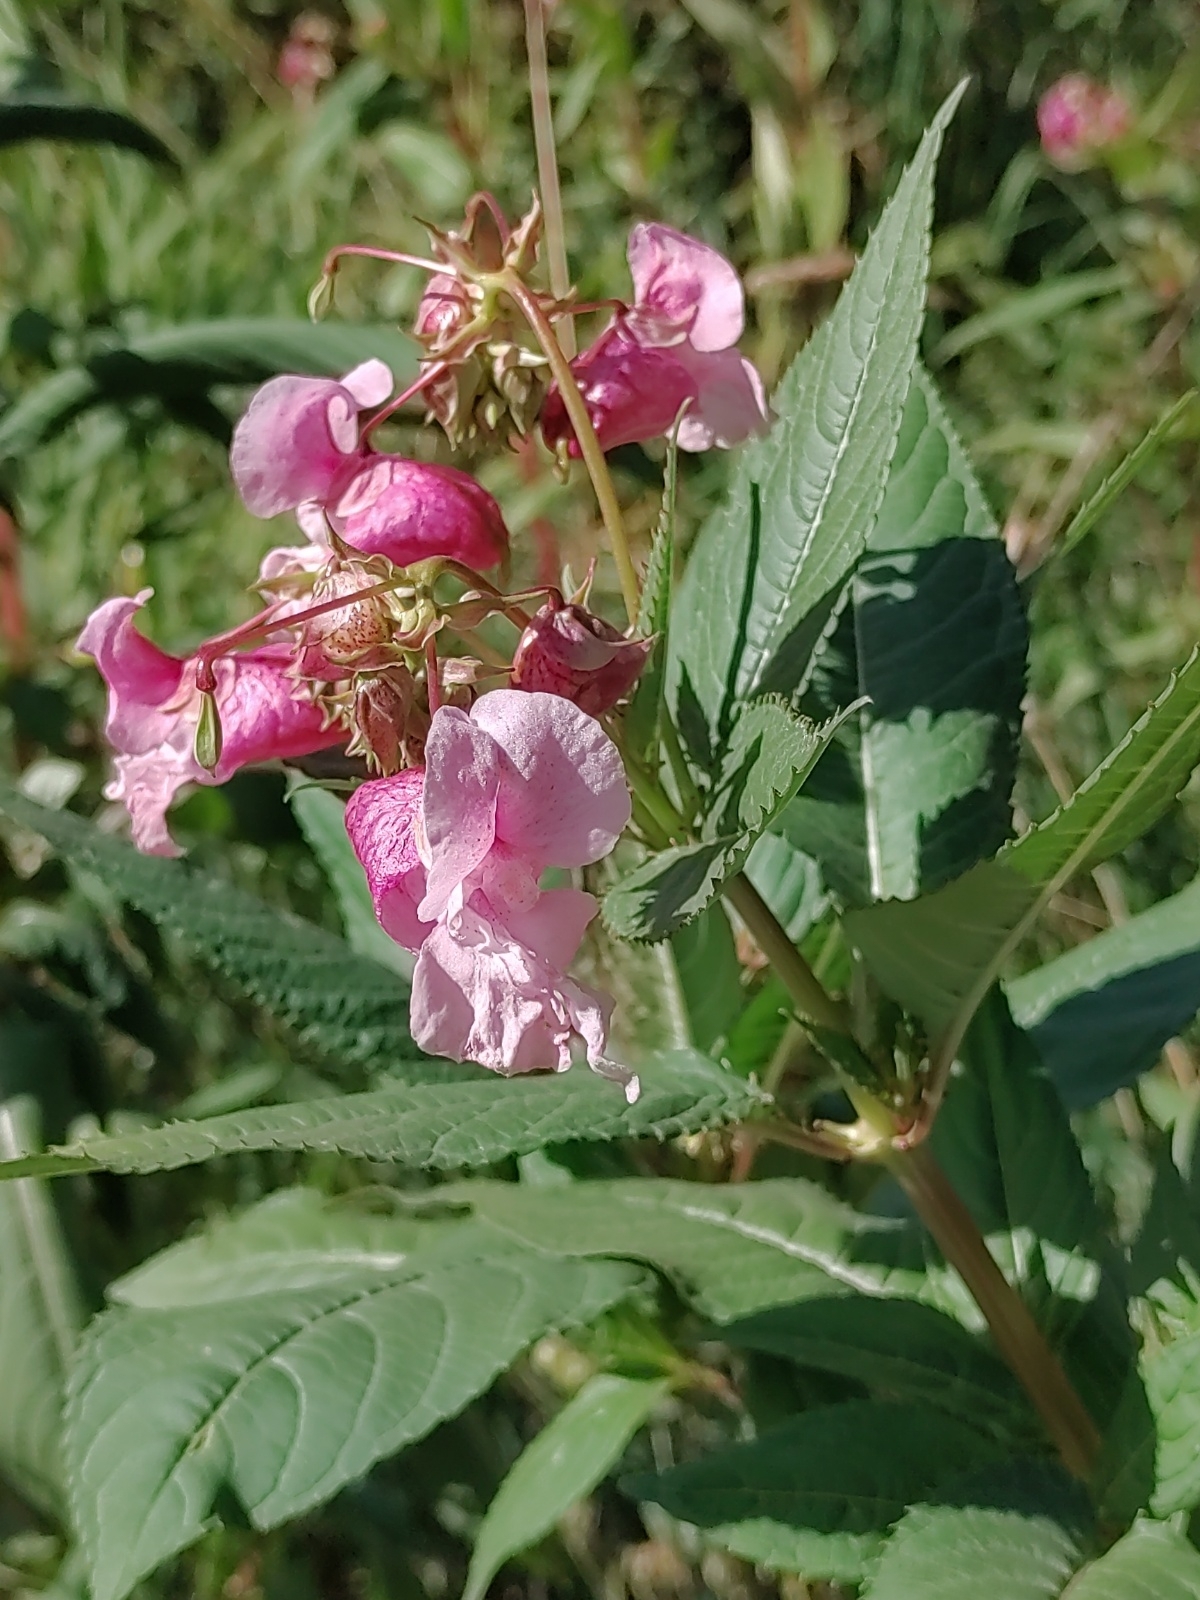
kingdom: Plantae
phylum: Tracheophyta
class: Magnoliopsida
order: Ericales
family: Balsaminaceae
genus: Impatiens
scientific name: Impatiens glandulifera
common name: Himalayan balsam
